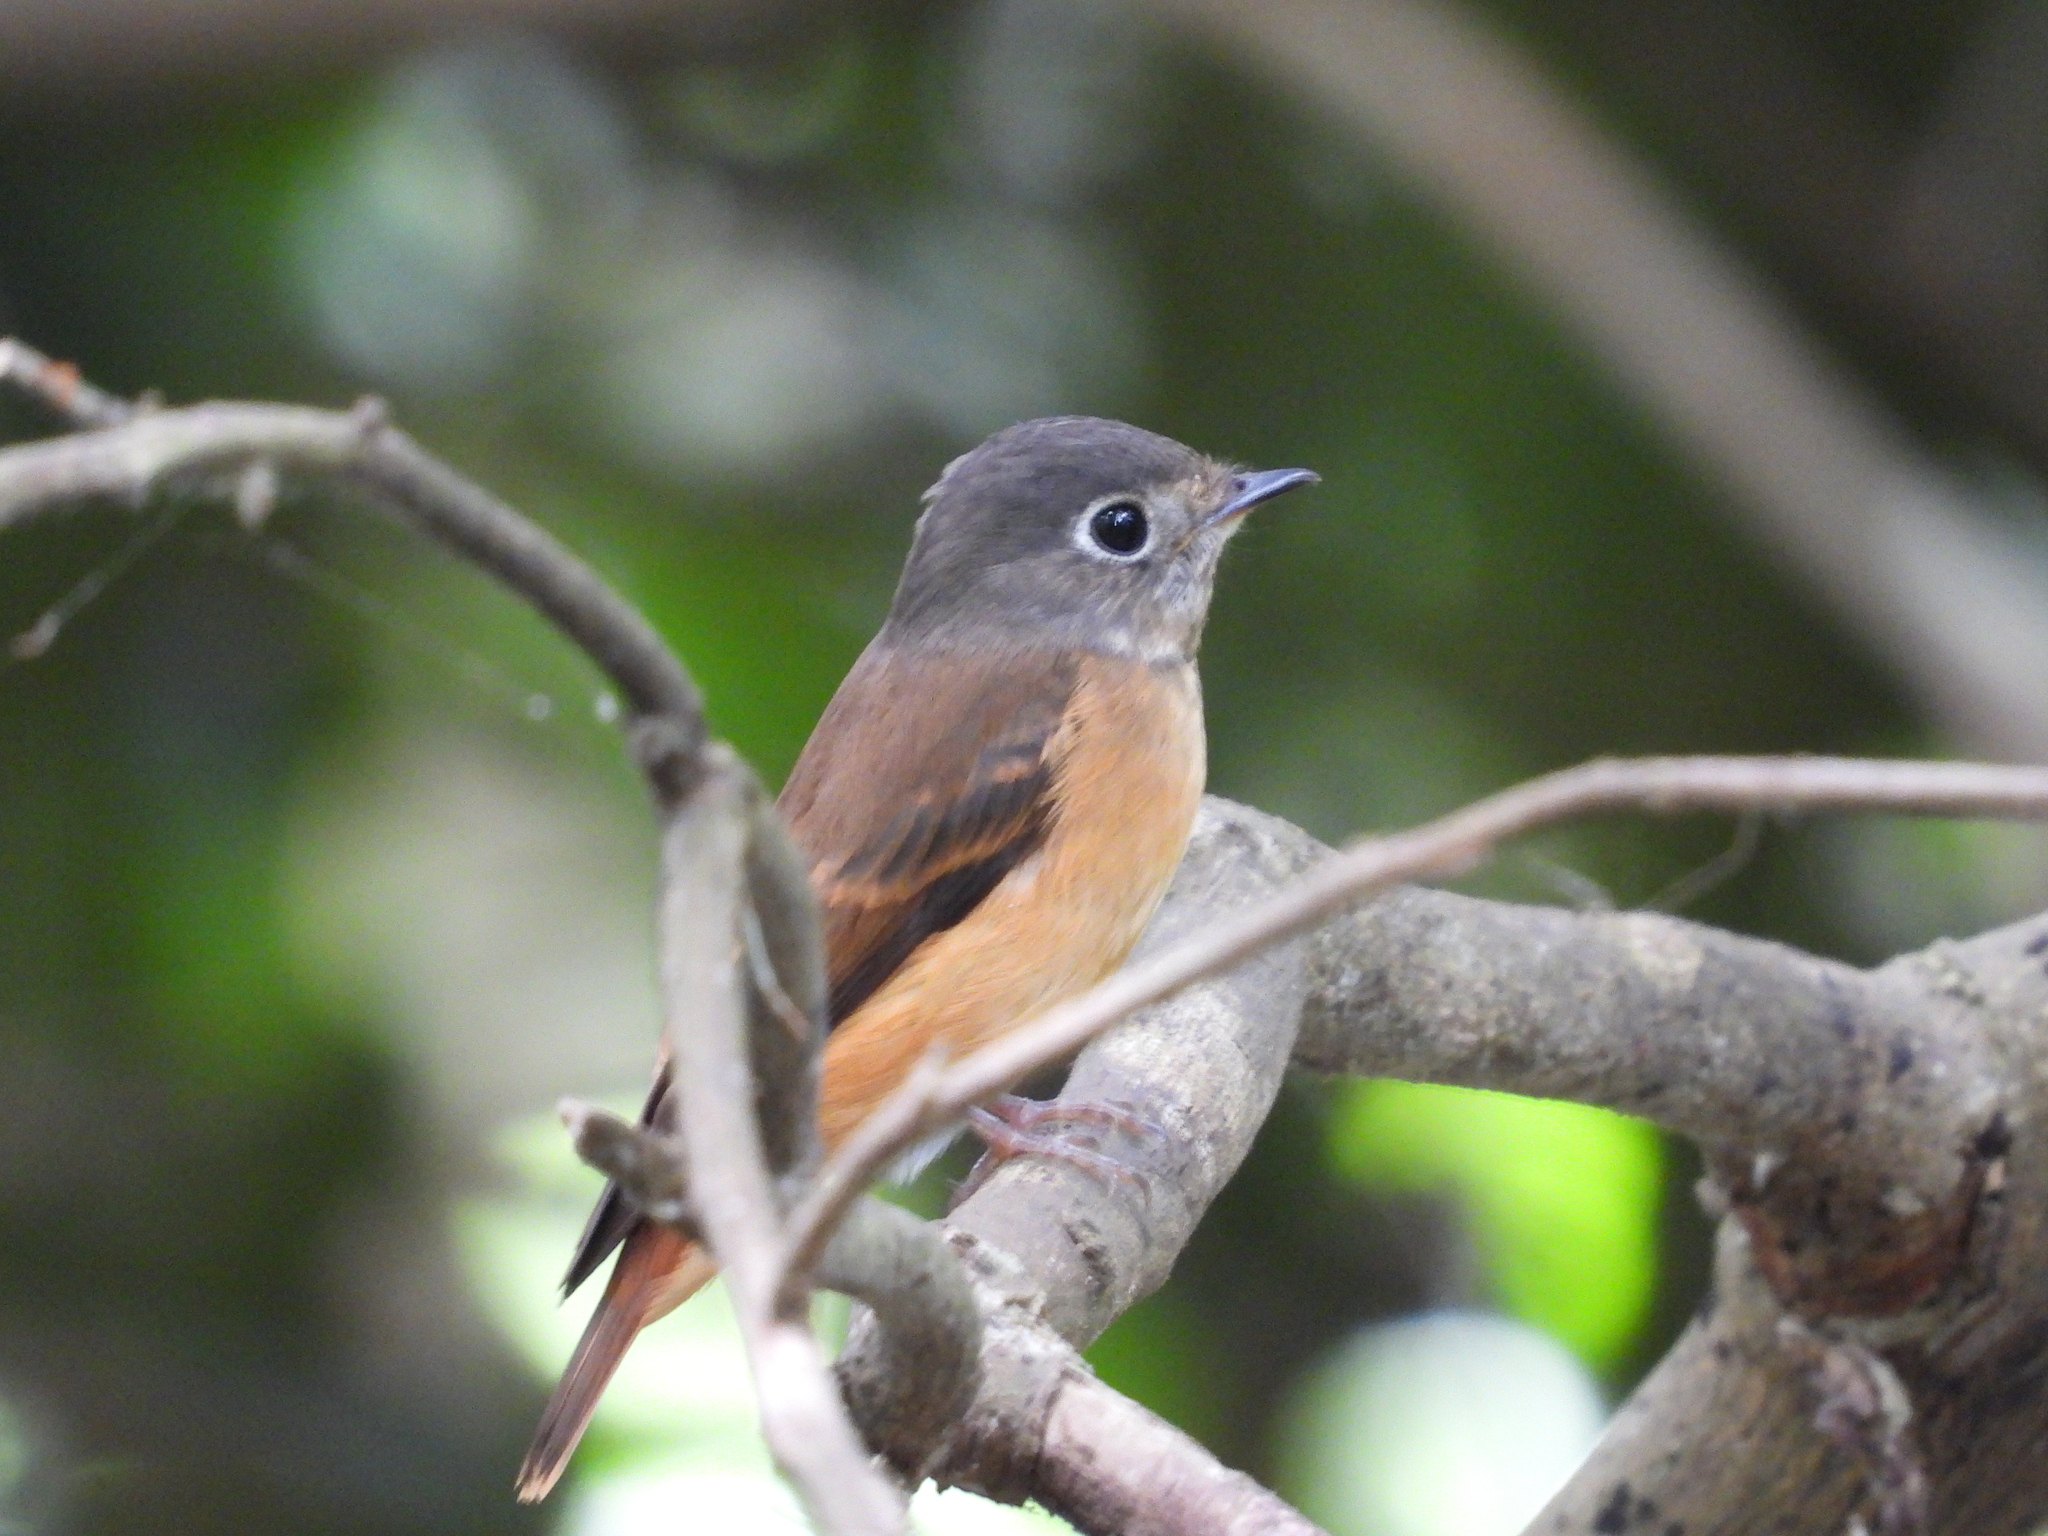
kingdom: Animalia
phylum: Chordata
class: Aves
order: Passeriformes
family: Muscicapidae
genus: Muscicapa
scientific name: Muscicapa ferruginea
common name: Ferruginous flycatcher
